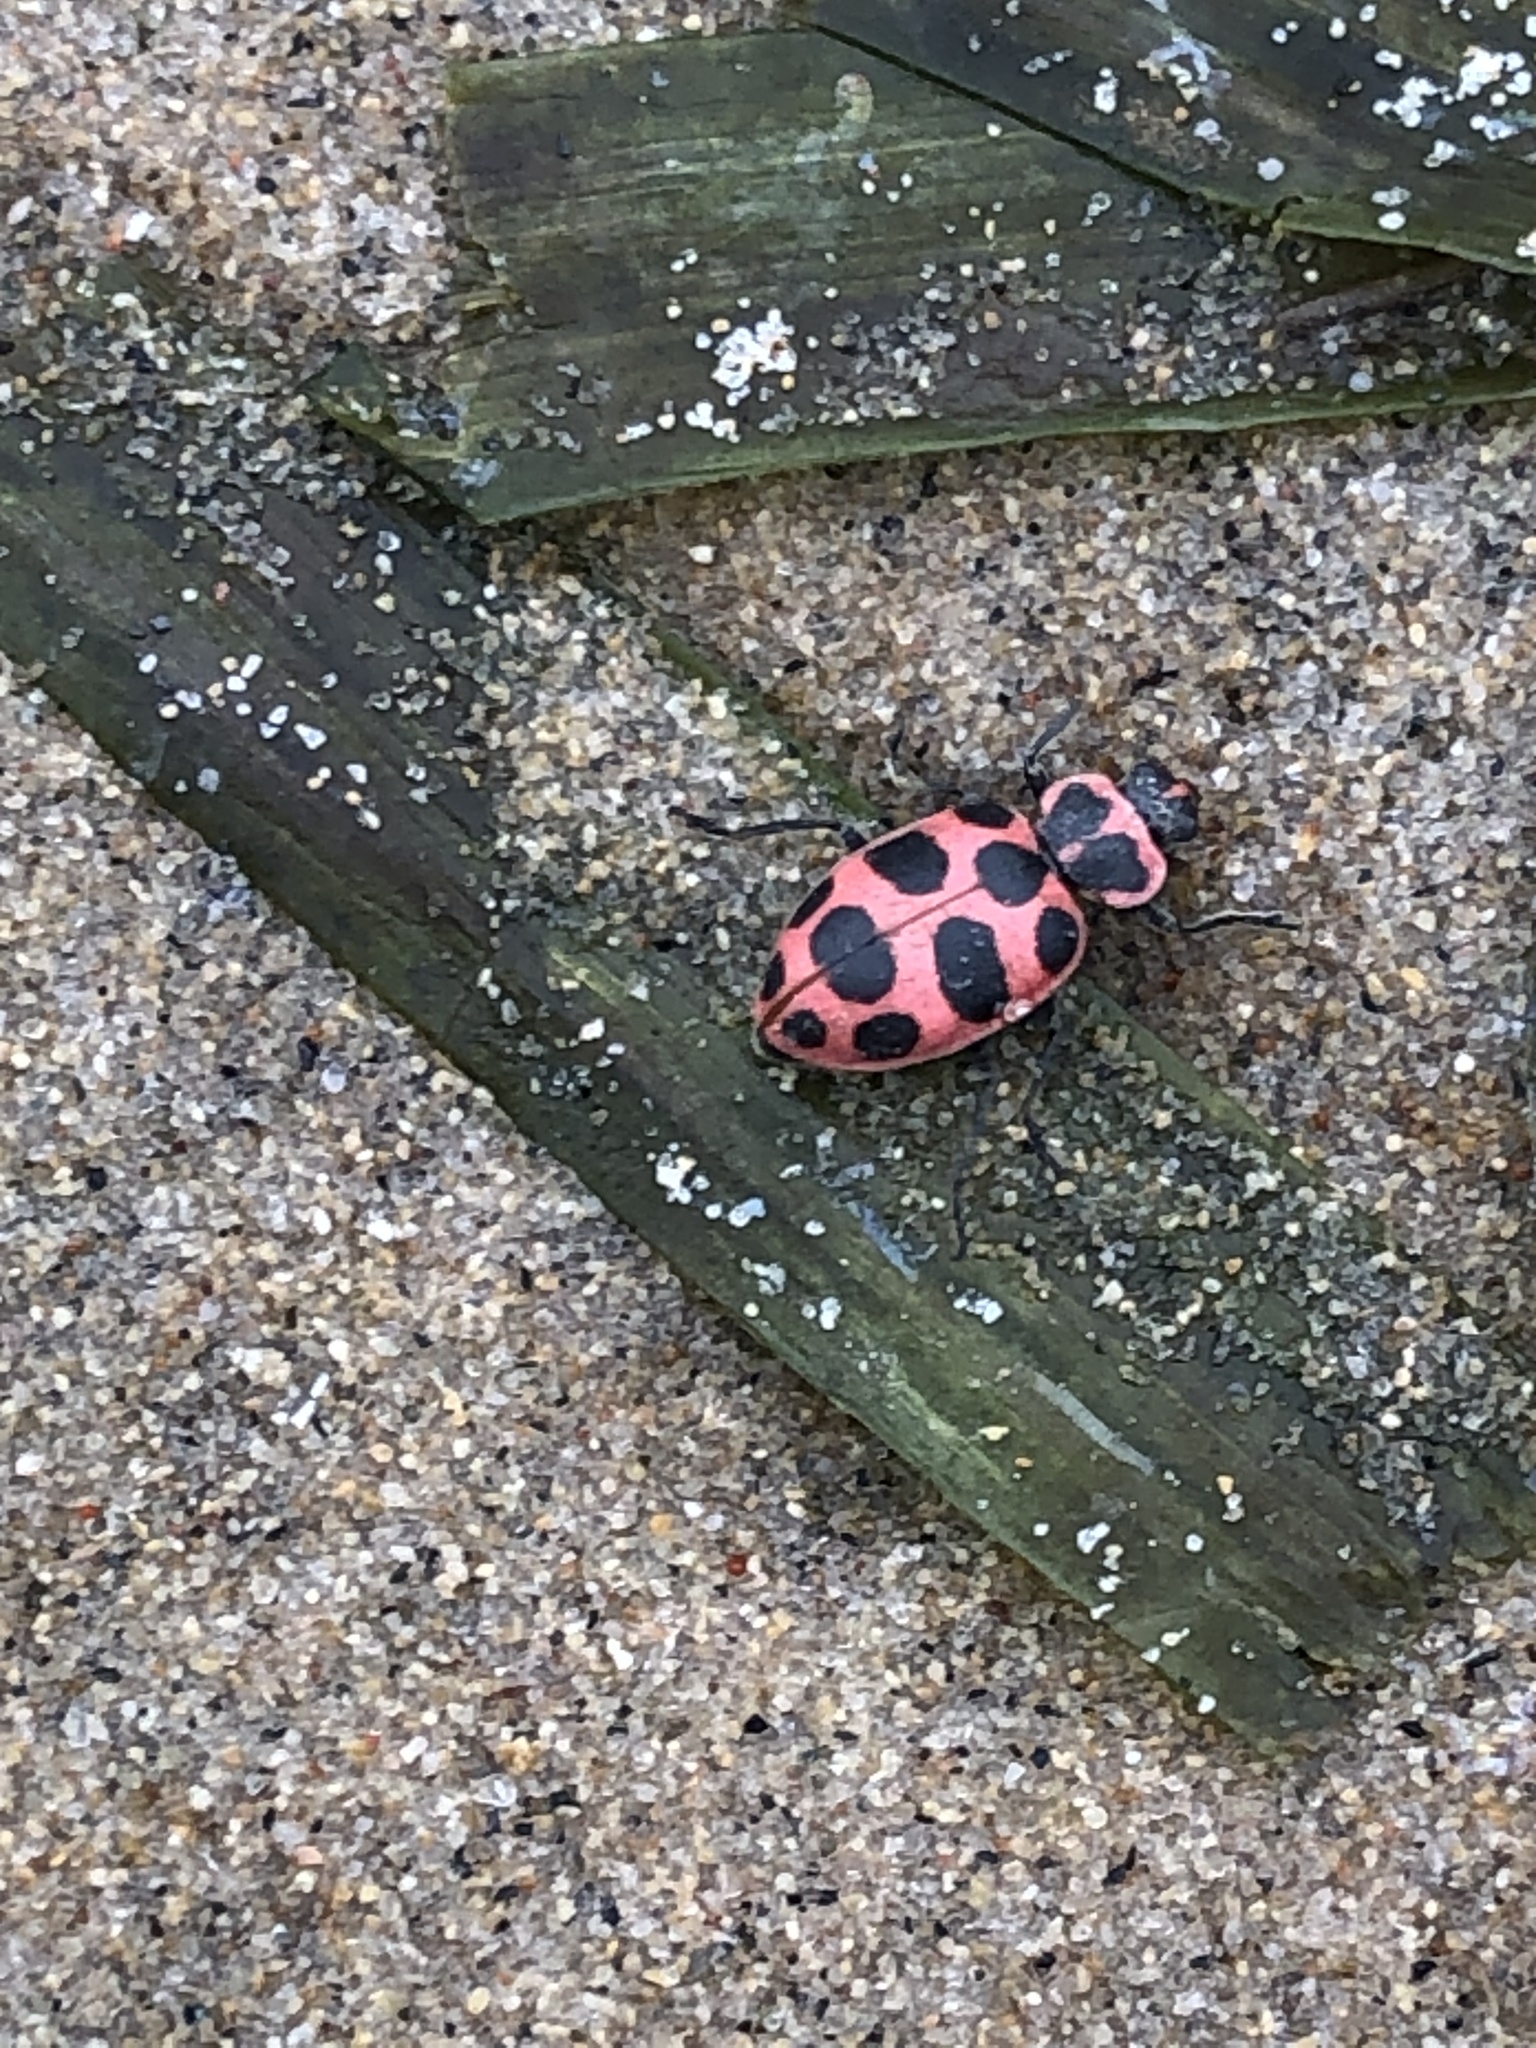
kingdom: Animalia
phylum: Arthropoda
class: Insecta
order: Coleoptera
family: Coccinellidae
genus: Coleomegilla
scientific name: Coleomegilla maculata
